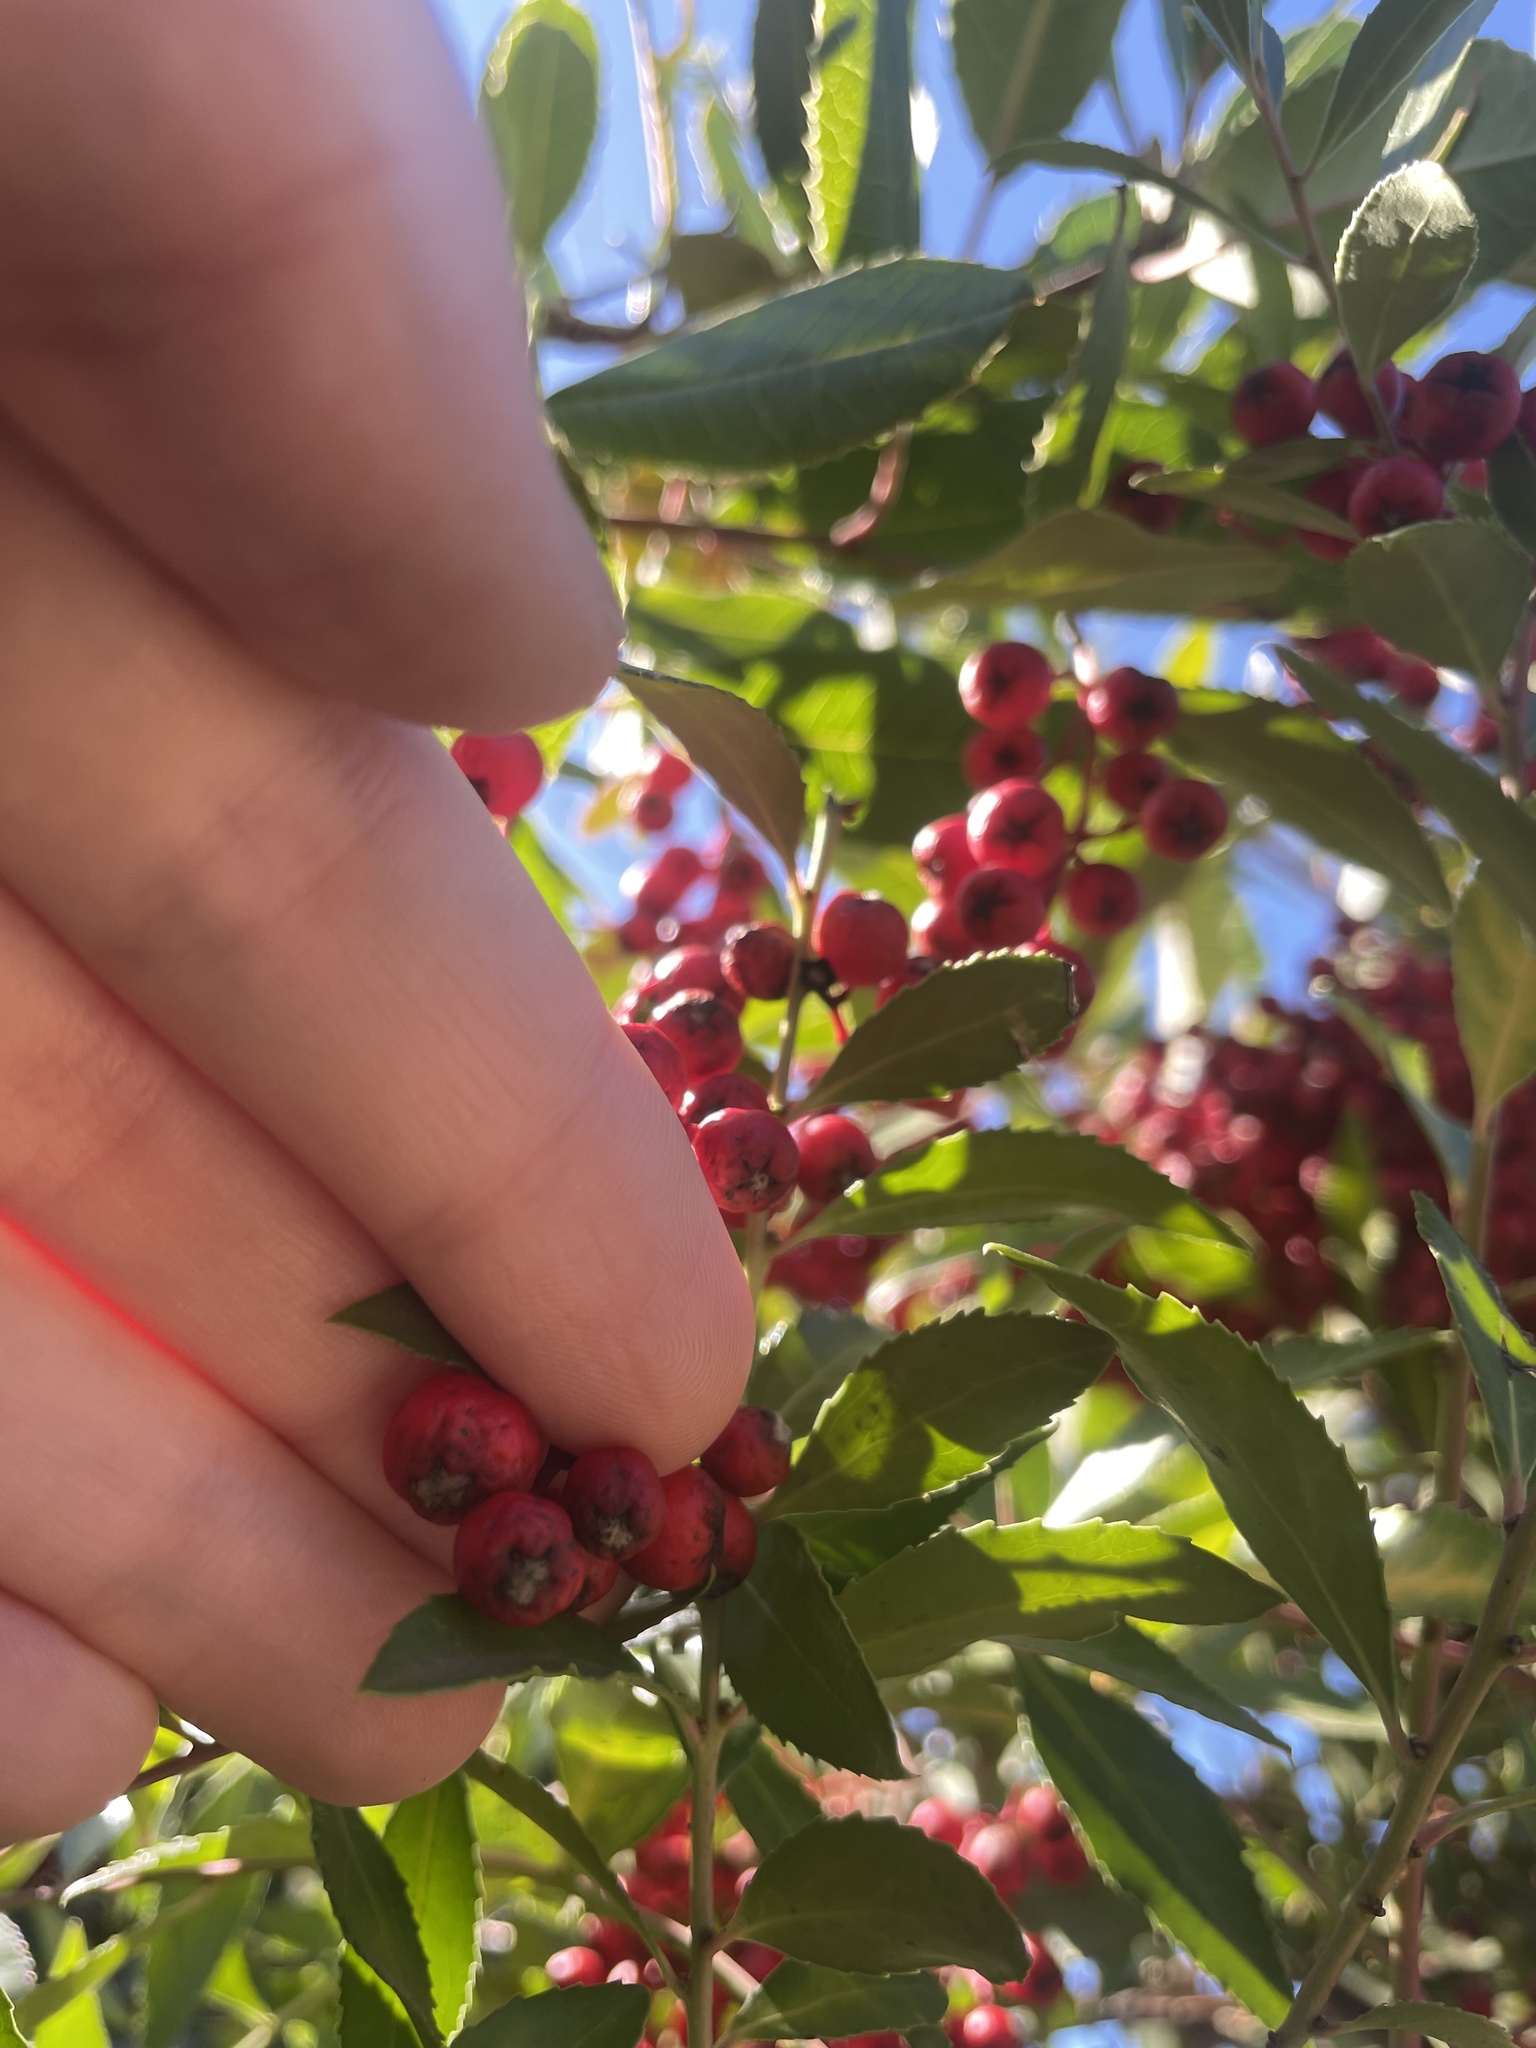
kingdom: Plantae
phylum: Tracheophyta
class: Magnoliopsida
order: Rosales
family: Rosaceae
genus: Heteromeles
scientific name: Heteromeles arbutifolia
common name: California-holly
